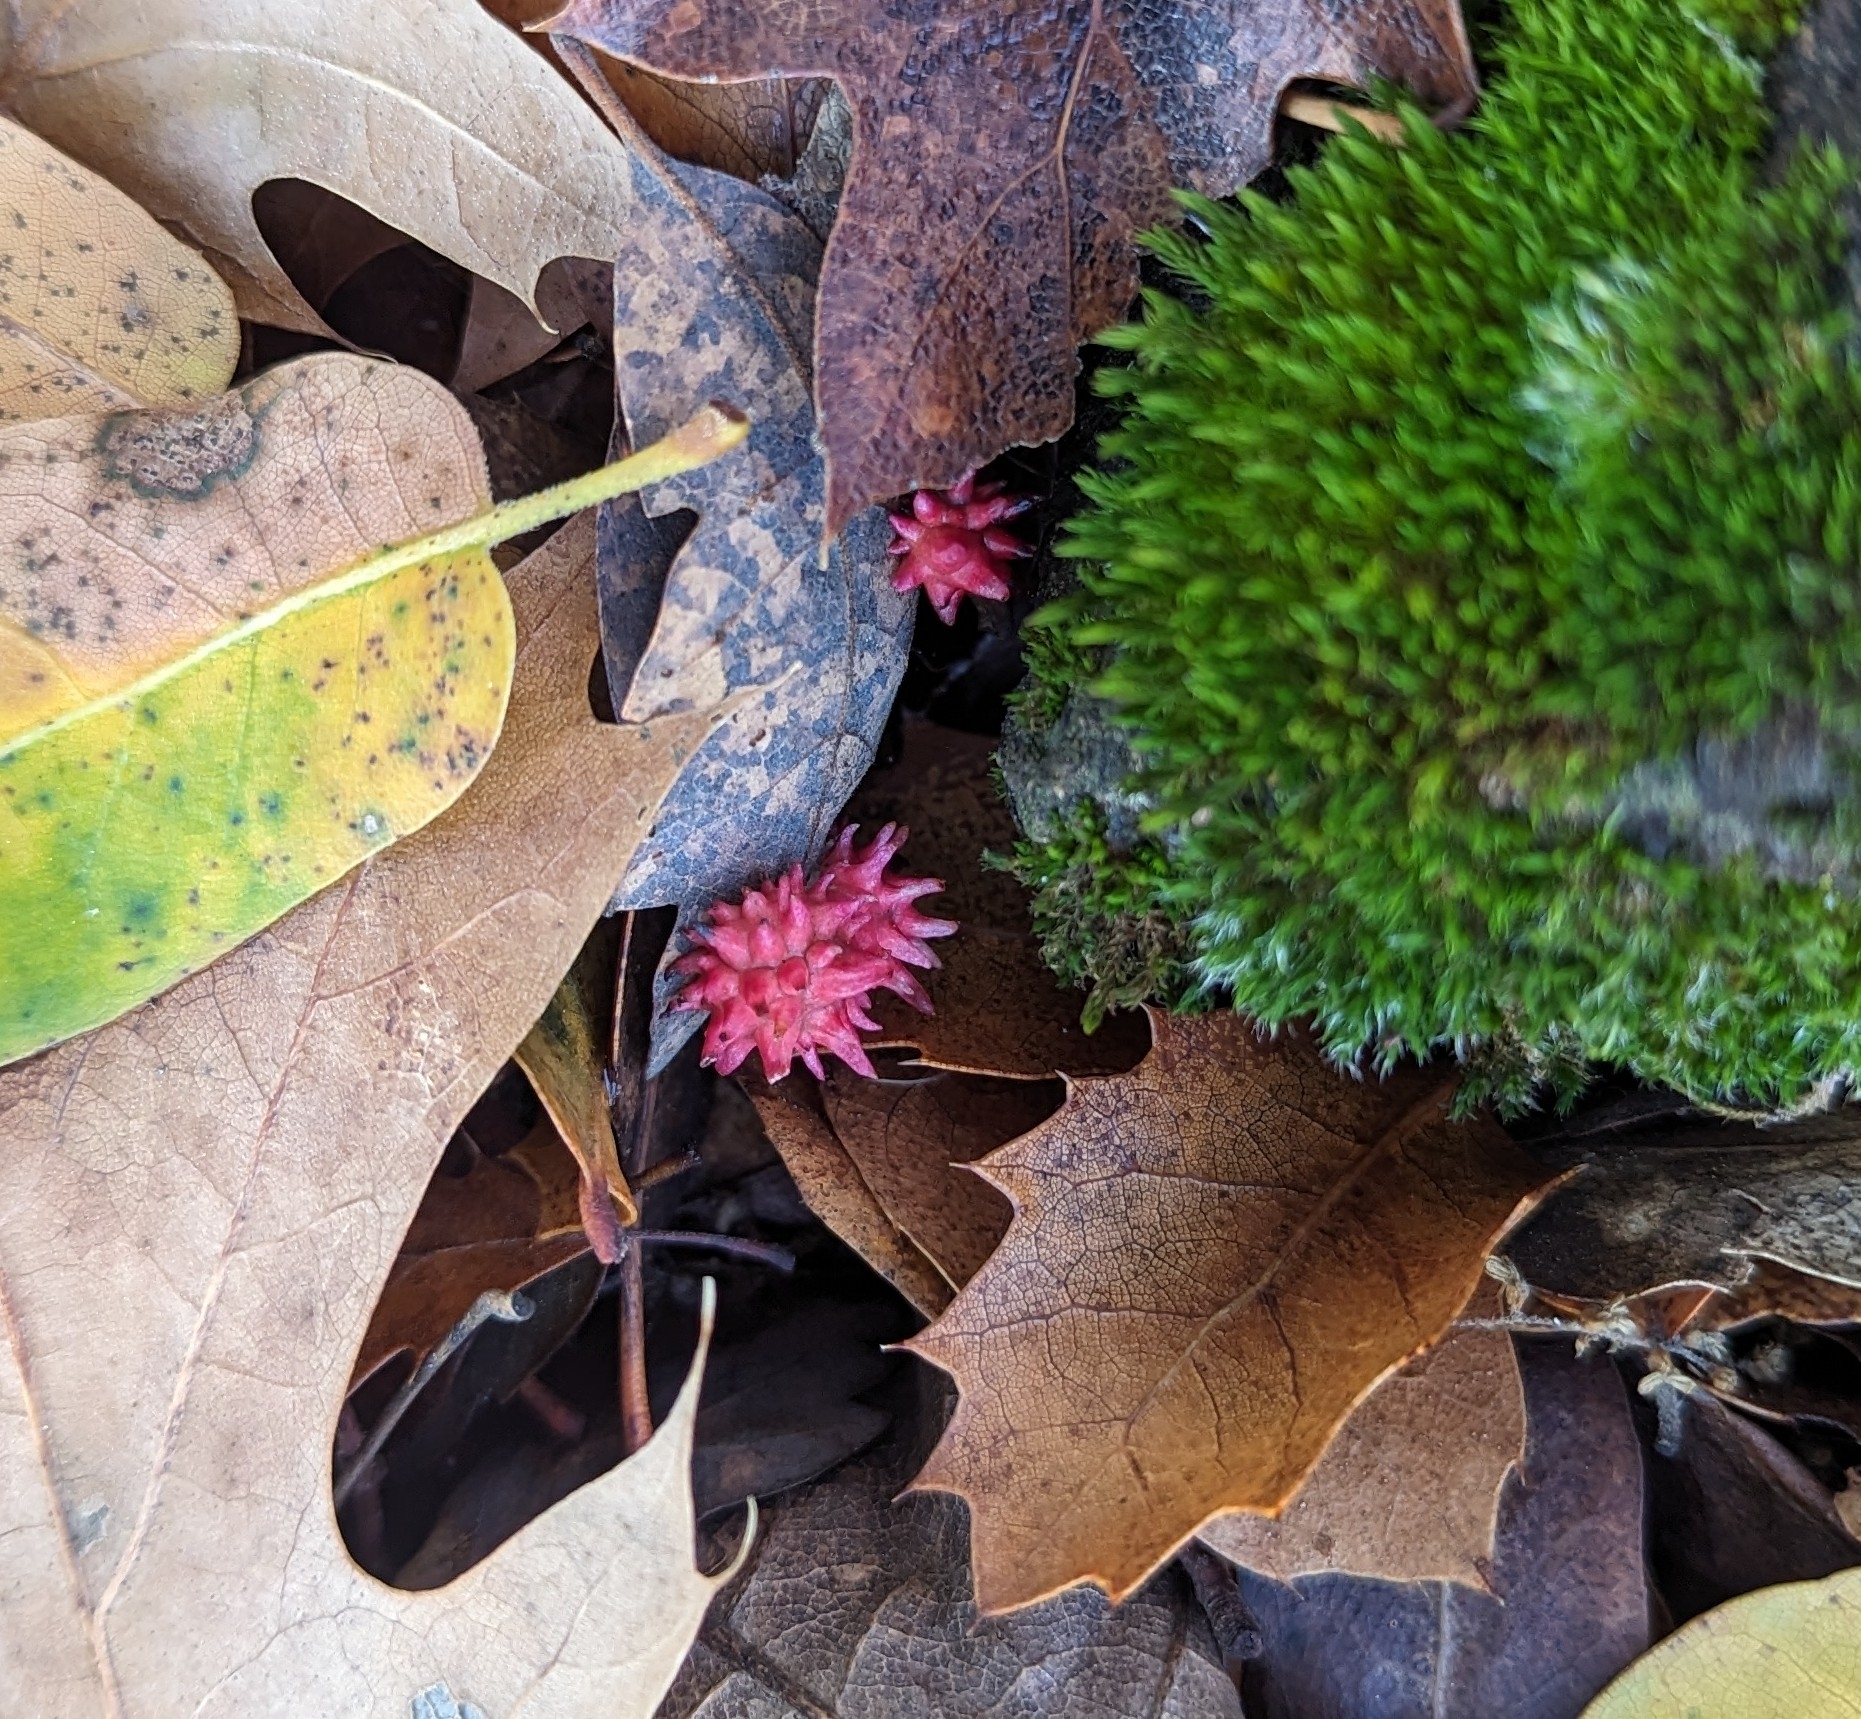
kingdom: Animalia
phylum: Arthropoda
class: Insecta
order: Hymenoptera
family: Cynipidae
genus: Cynips
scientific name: Cynips
